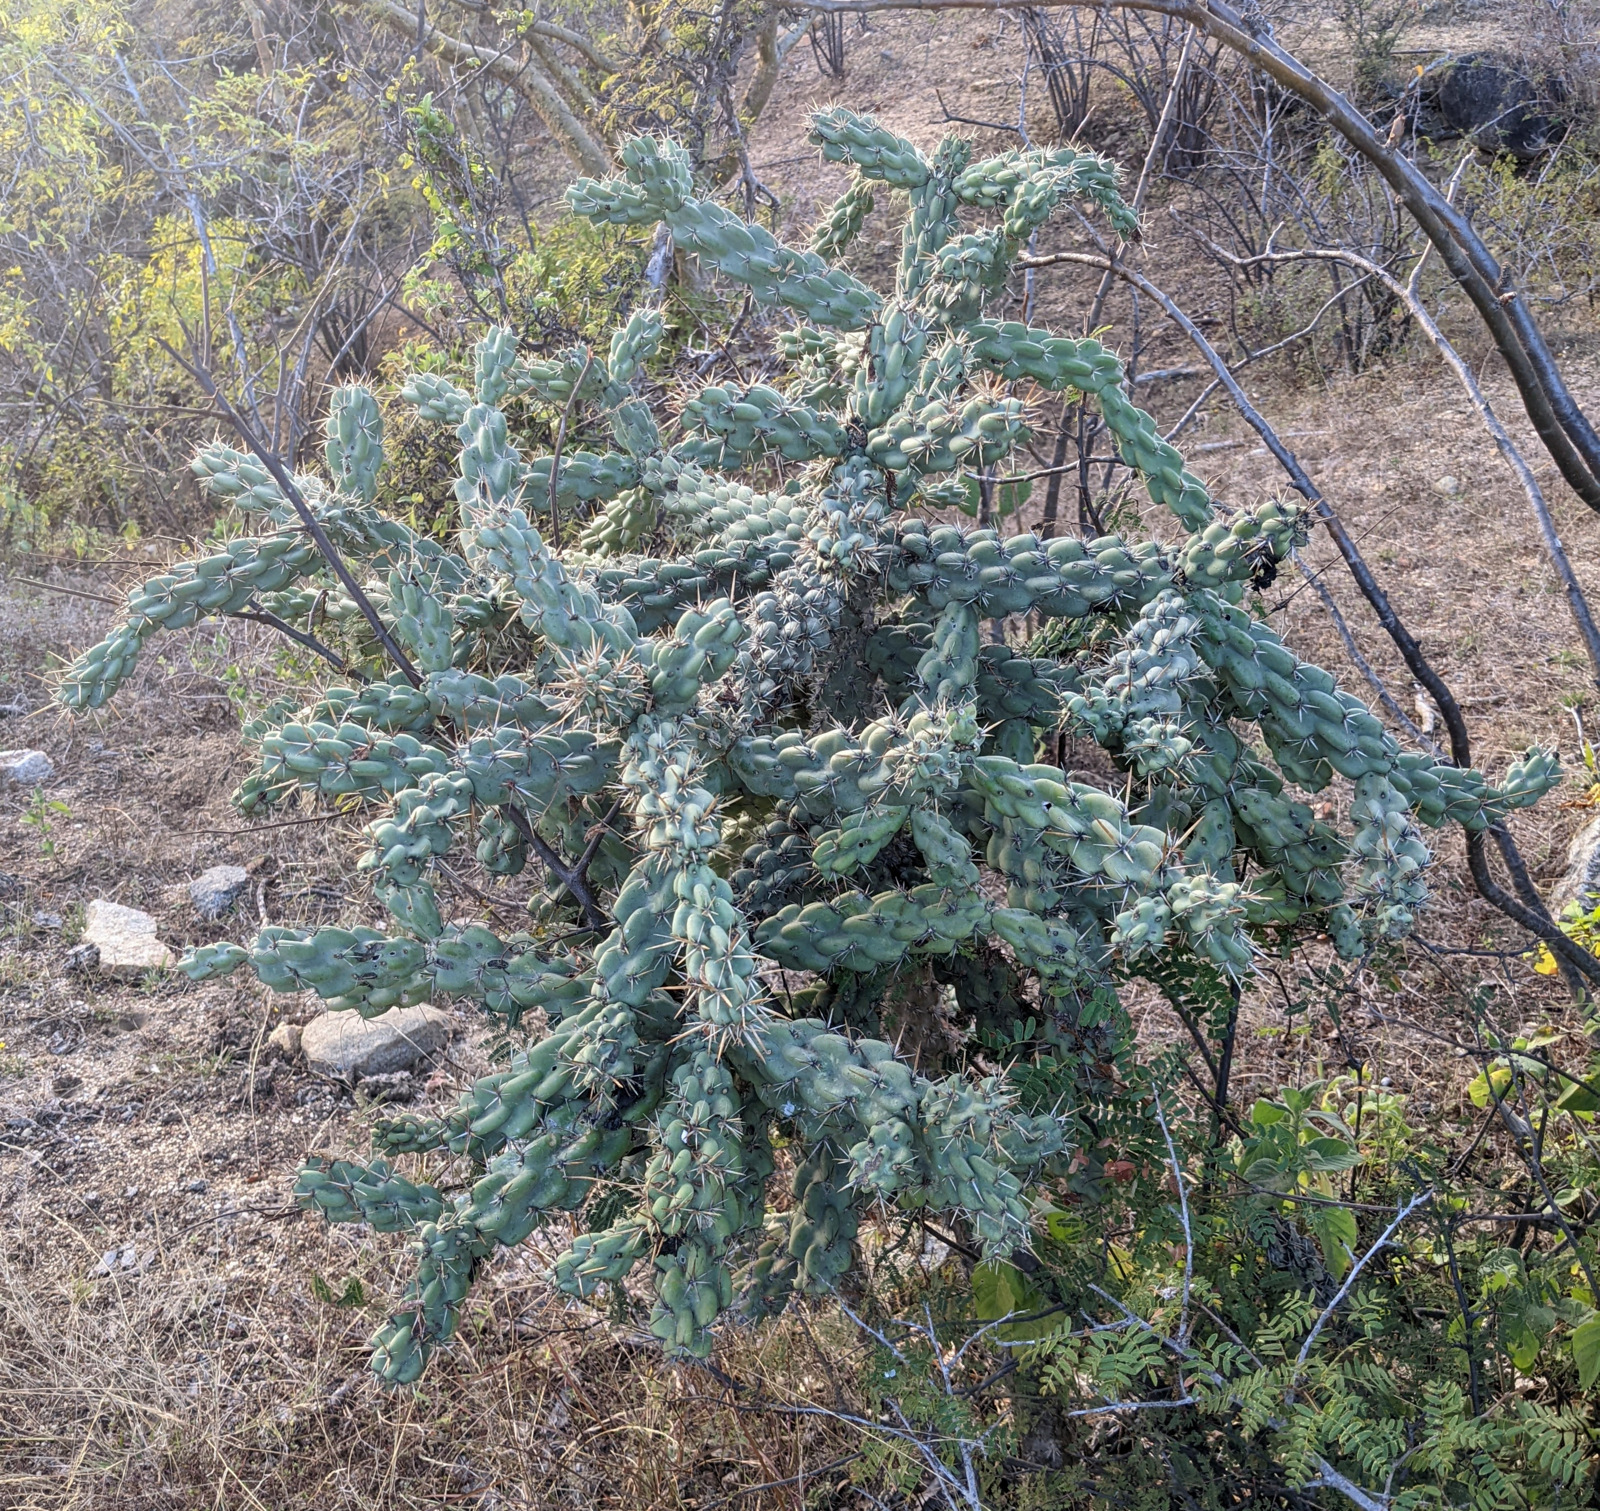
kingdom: Plantae
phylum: Tracheophyta
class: Magnoliopsida
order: Caryophyllales
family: Cactaceae
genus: Cylindropuntia
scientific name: Cylindropuntia cholla
